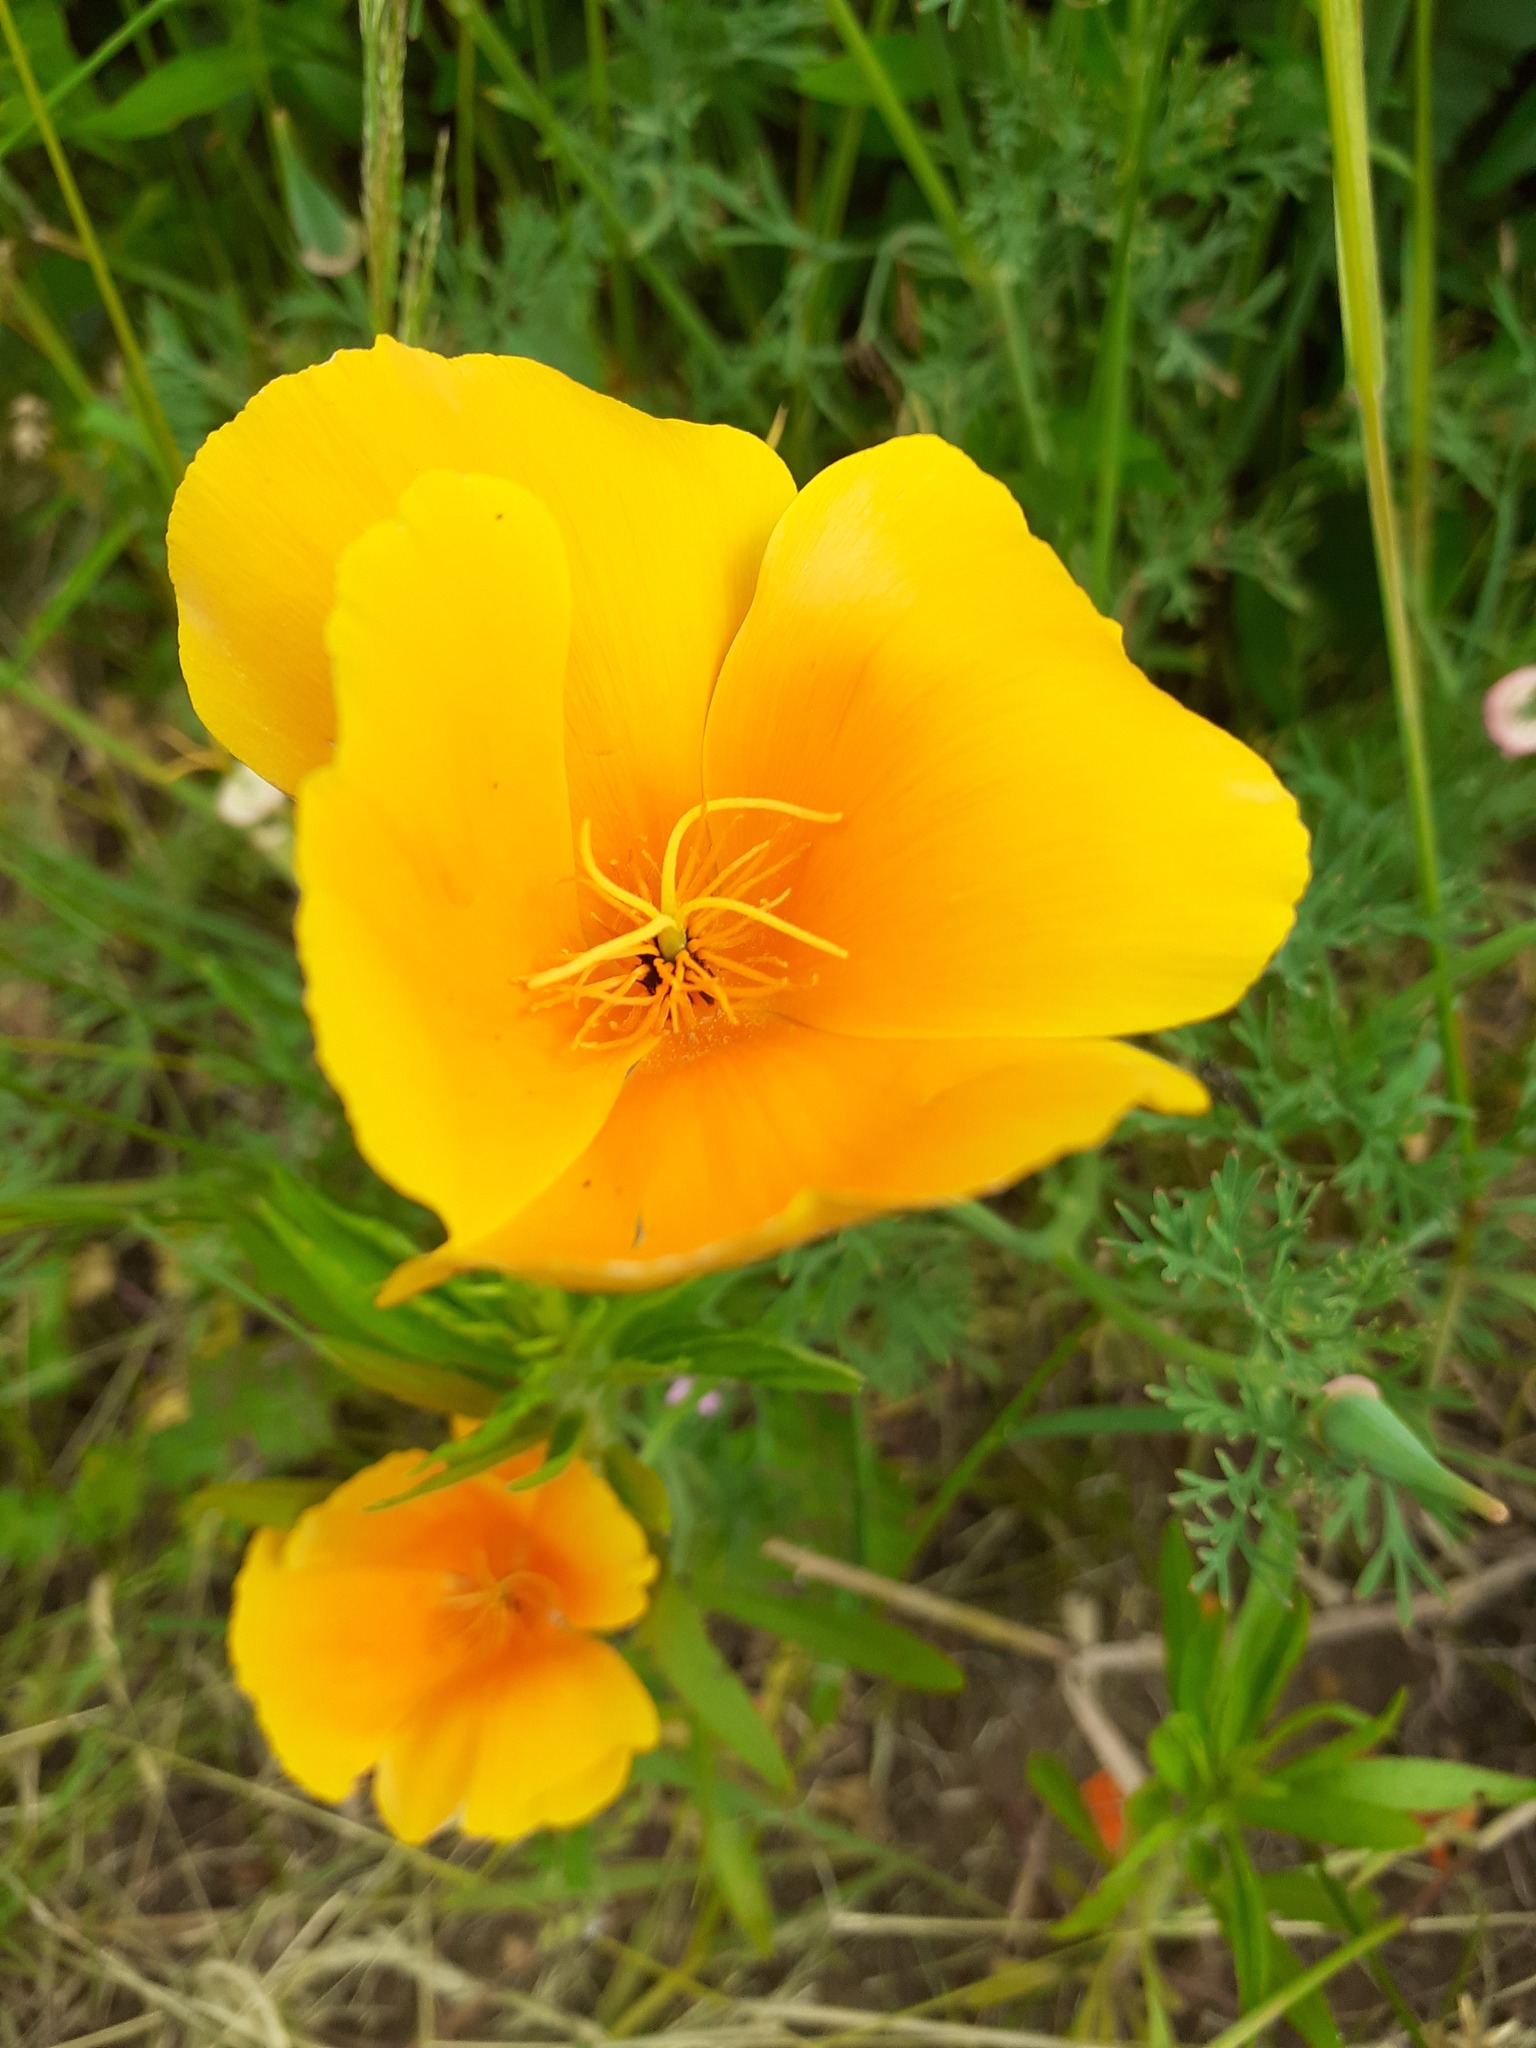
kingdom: Plantae
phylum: Tracheophyta
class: Magnoliopsida
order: Ranunculales
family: Papaveraceae
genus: Eschscholzia
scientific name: Eschscholzia californica
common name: California poppy
